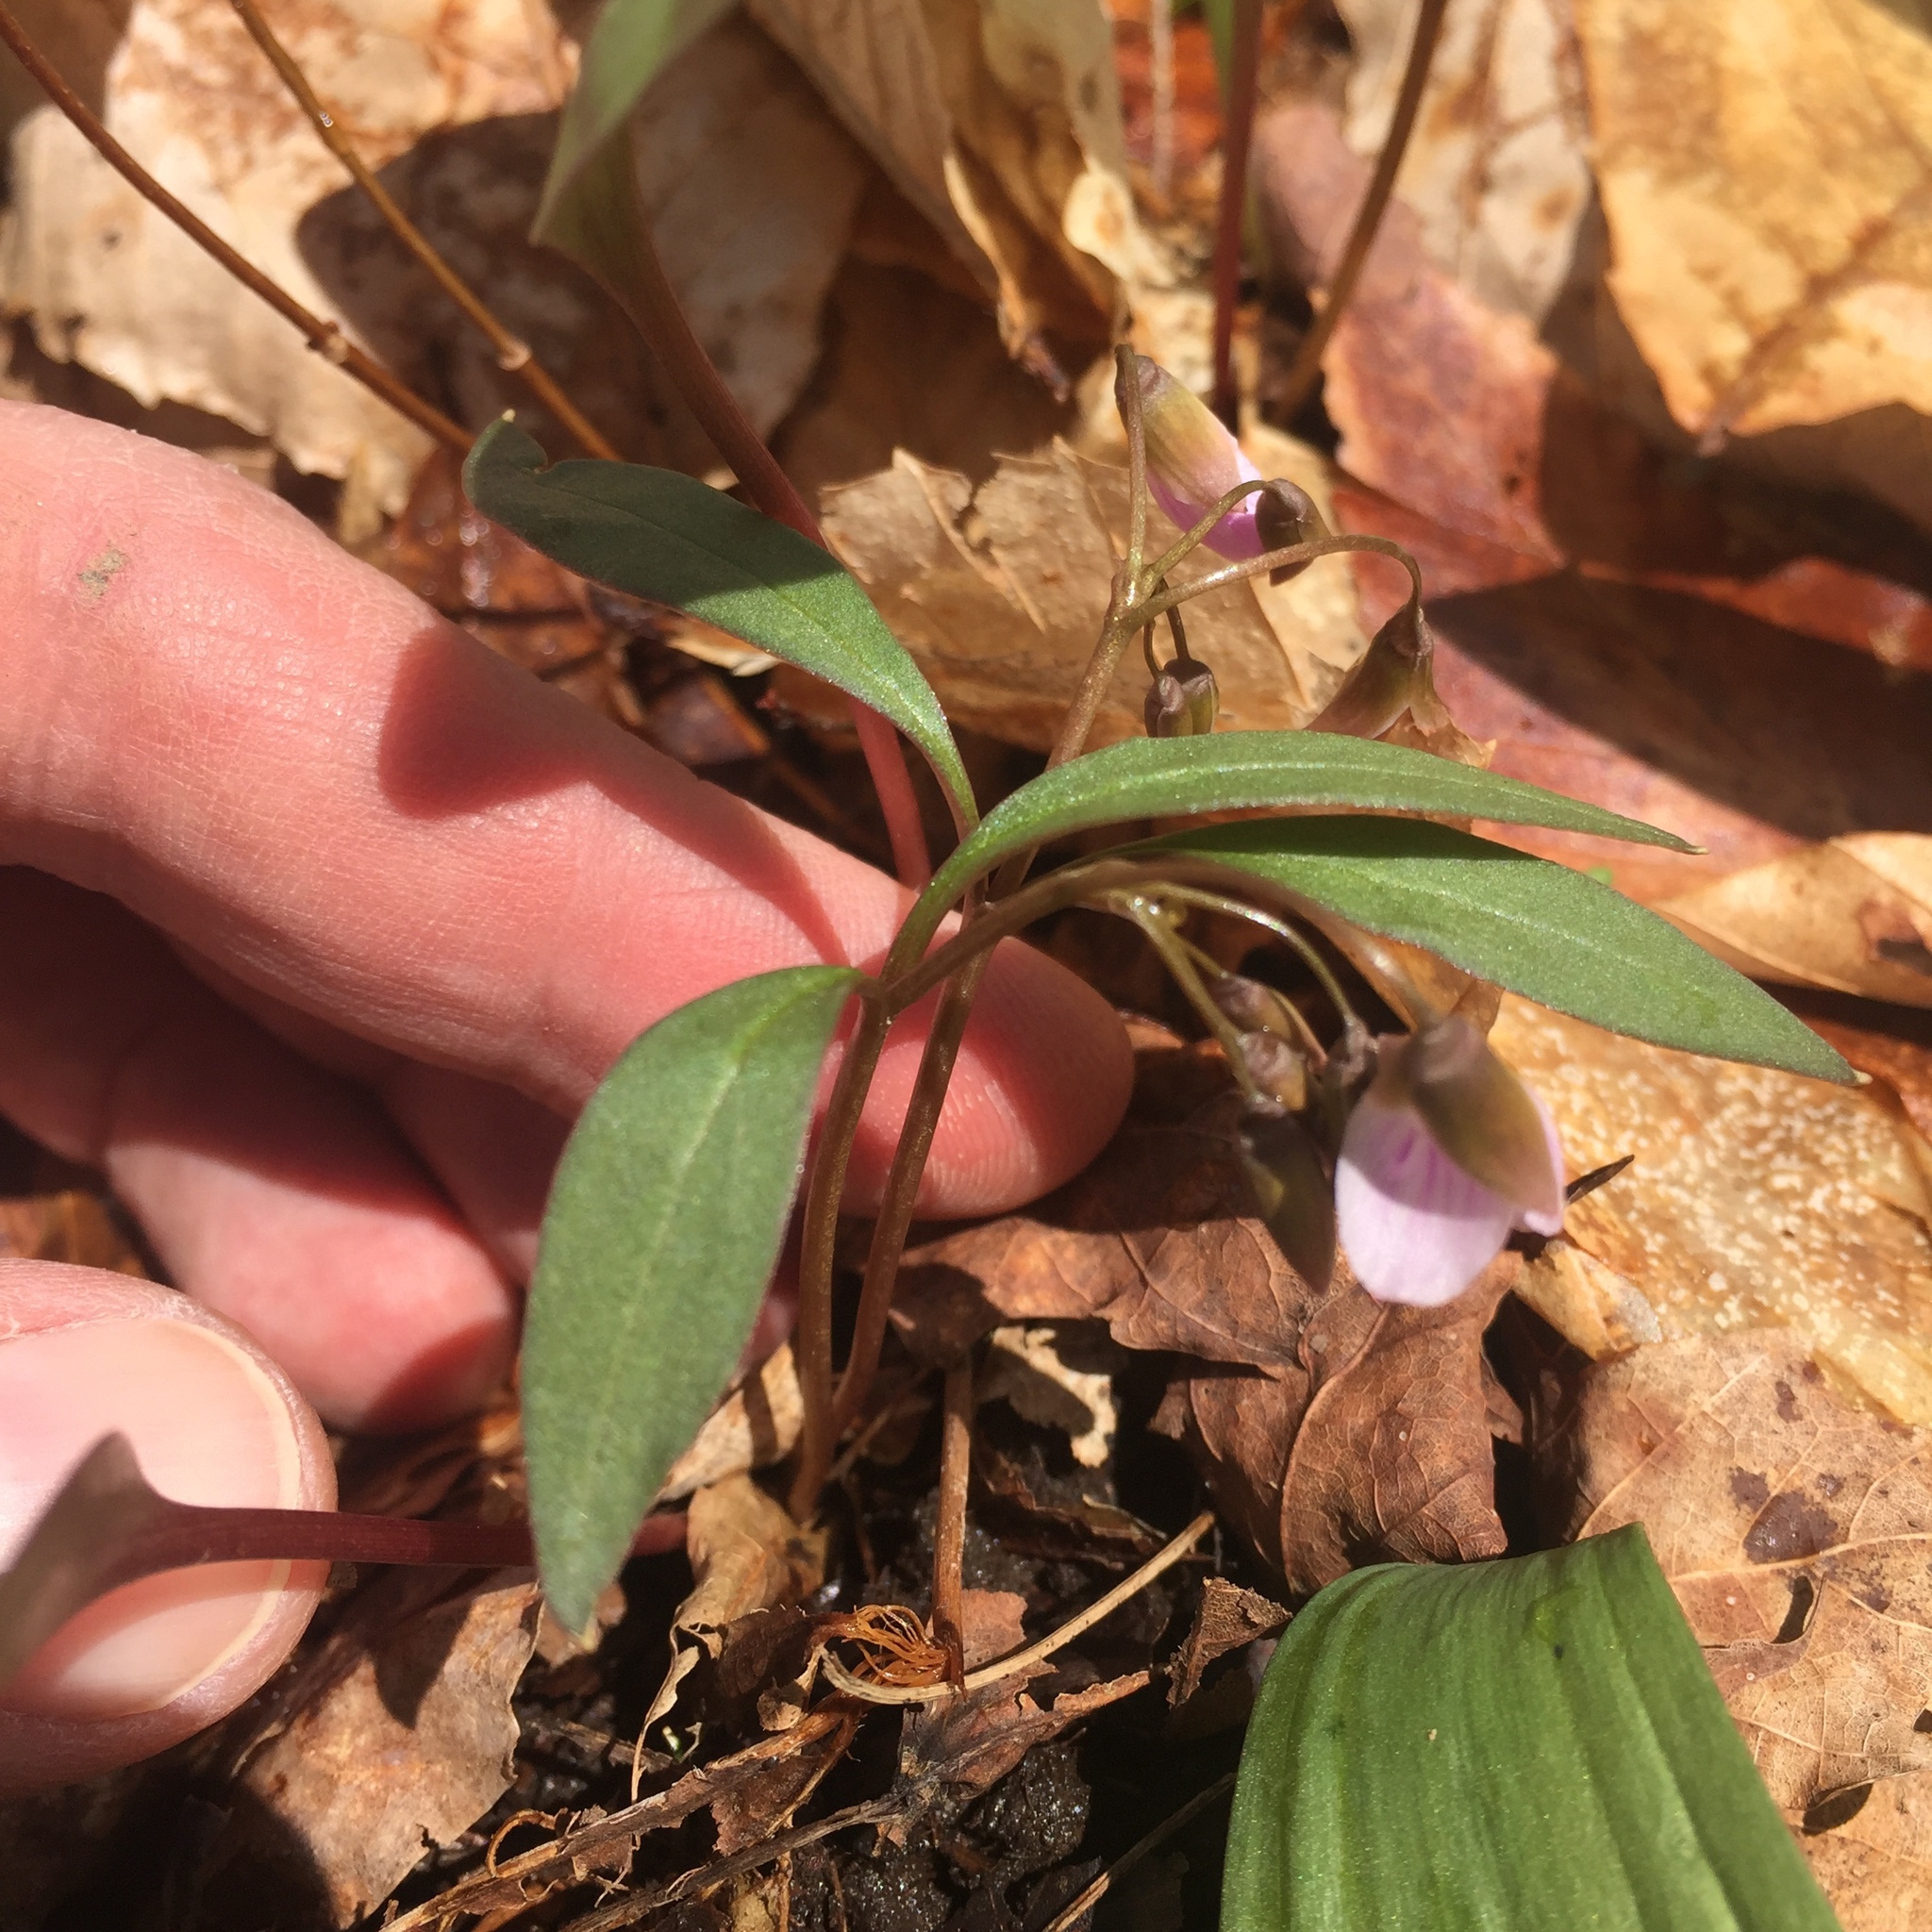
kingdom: Plantae
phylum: Tracheophyta
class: Magnoliopsida
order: Caryophyllales
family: Montiaceae
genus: Claytonia
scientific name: Claytonia caroliniana
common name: Carolina spring beauty
